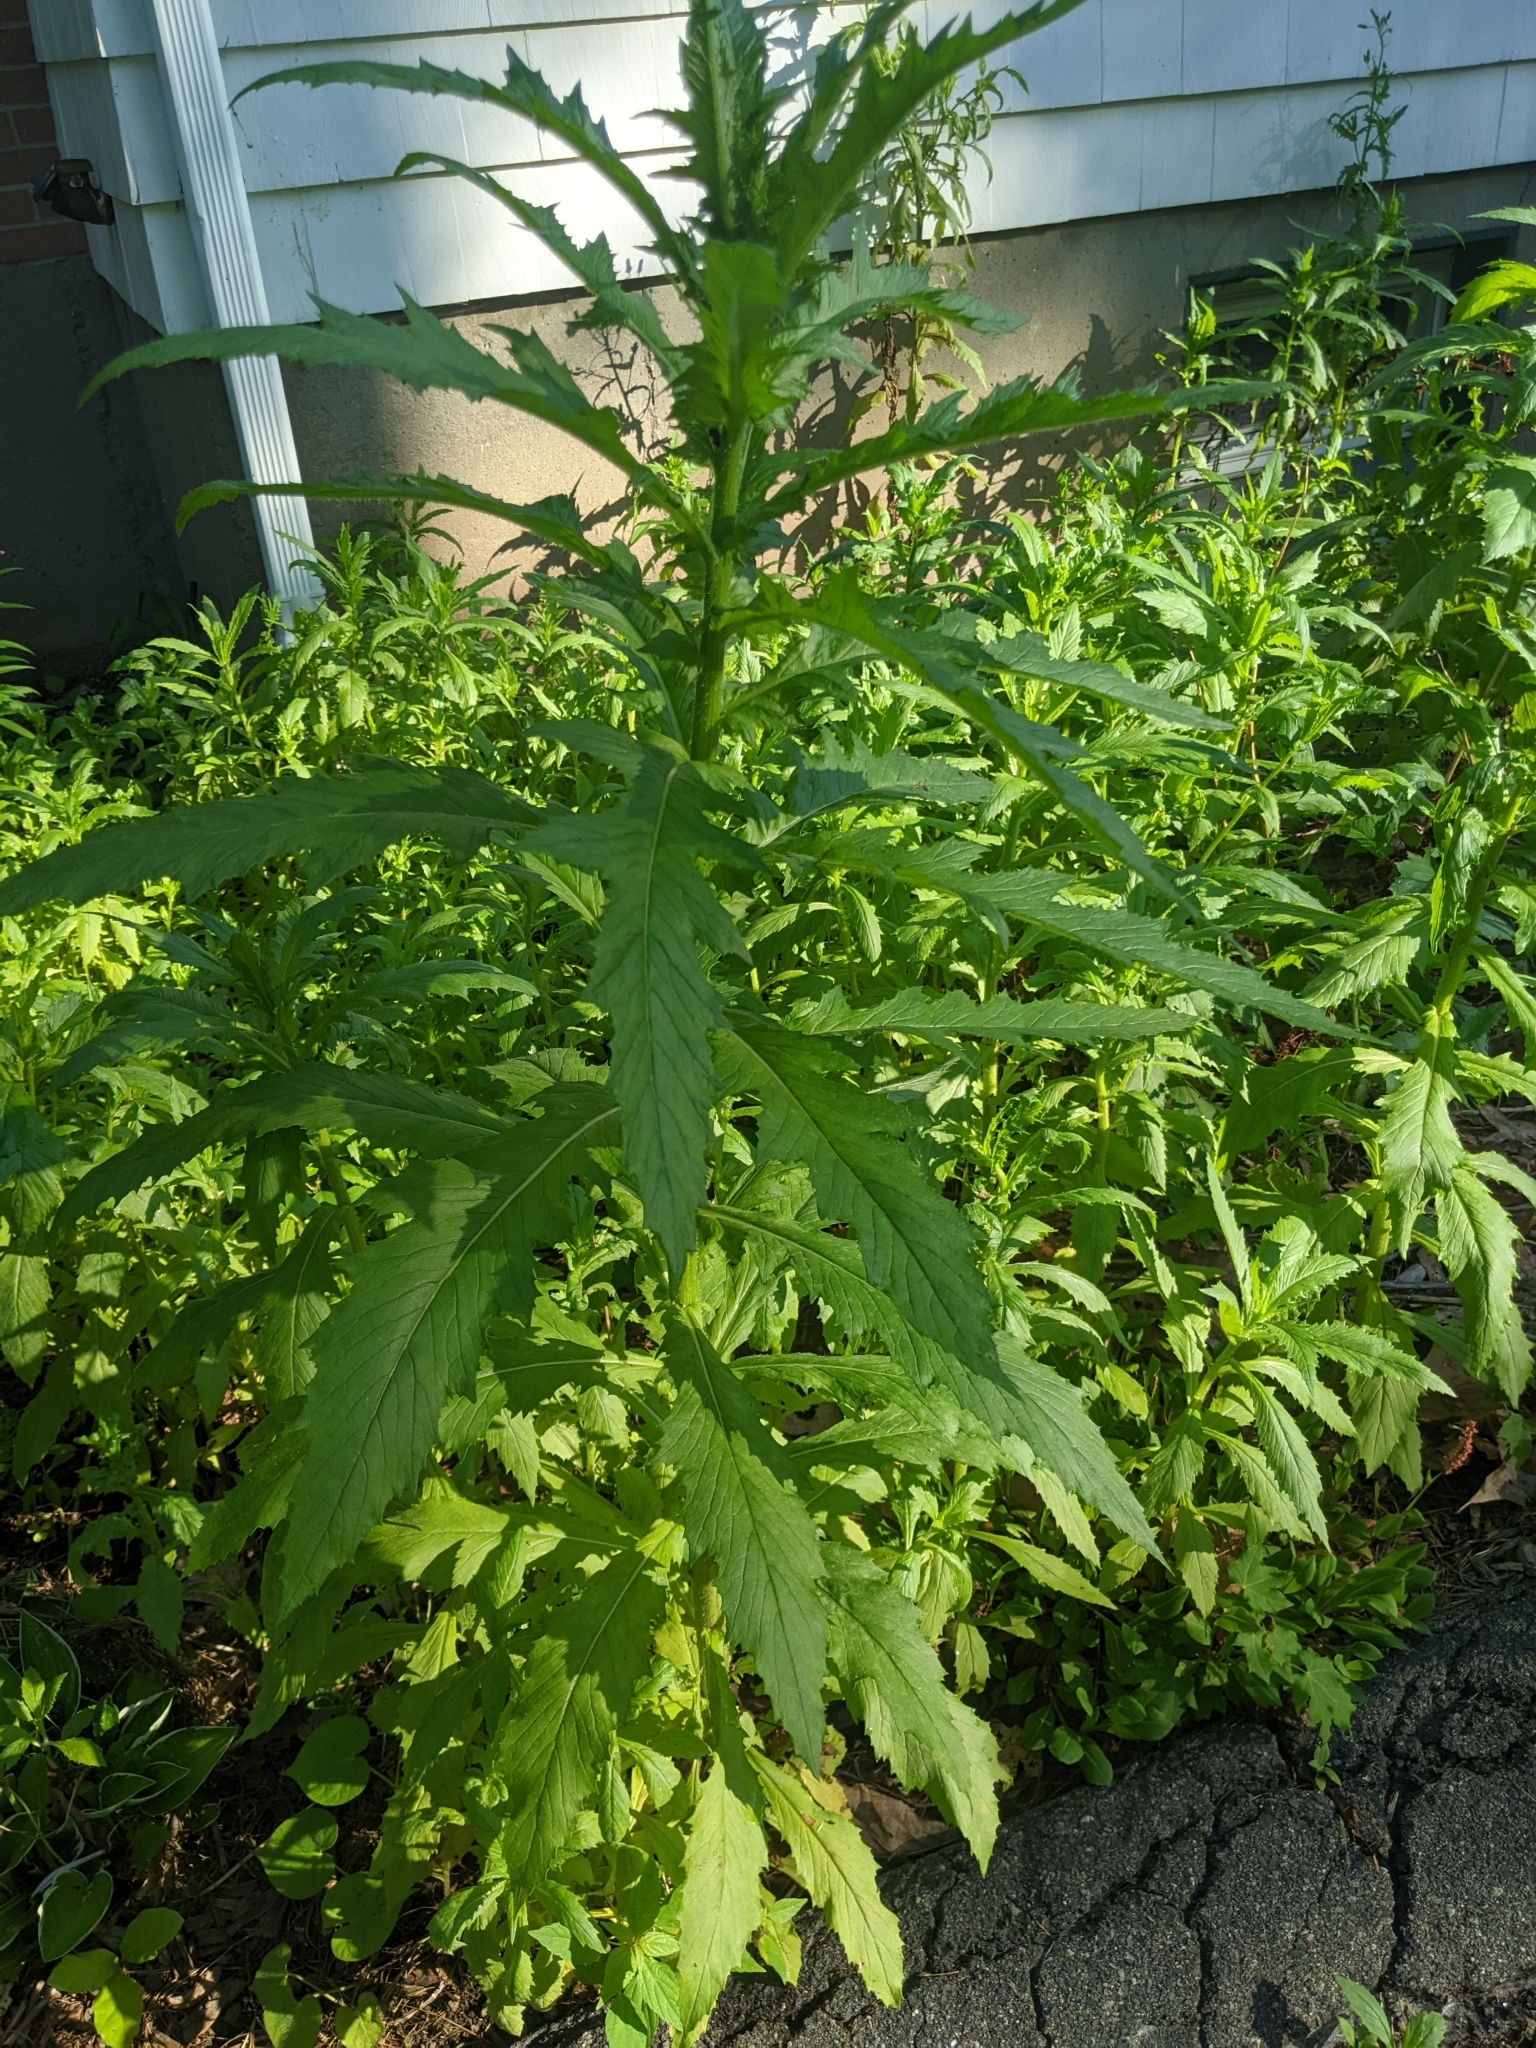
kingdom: Plantae
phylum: Tracheophyta
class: Magnoliopsida
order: Asterales
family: Asteraceae
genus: Erechtites
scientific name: Erechtites hieraciifolius
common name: American burnweed
